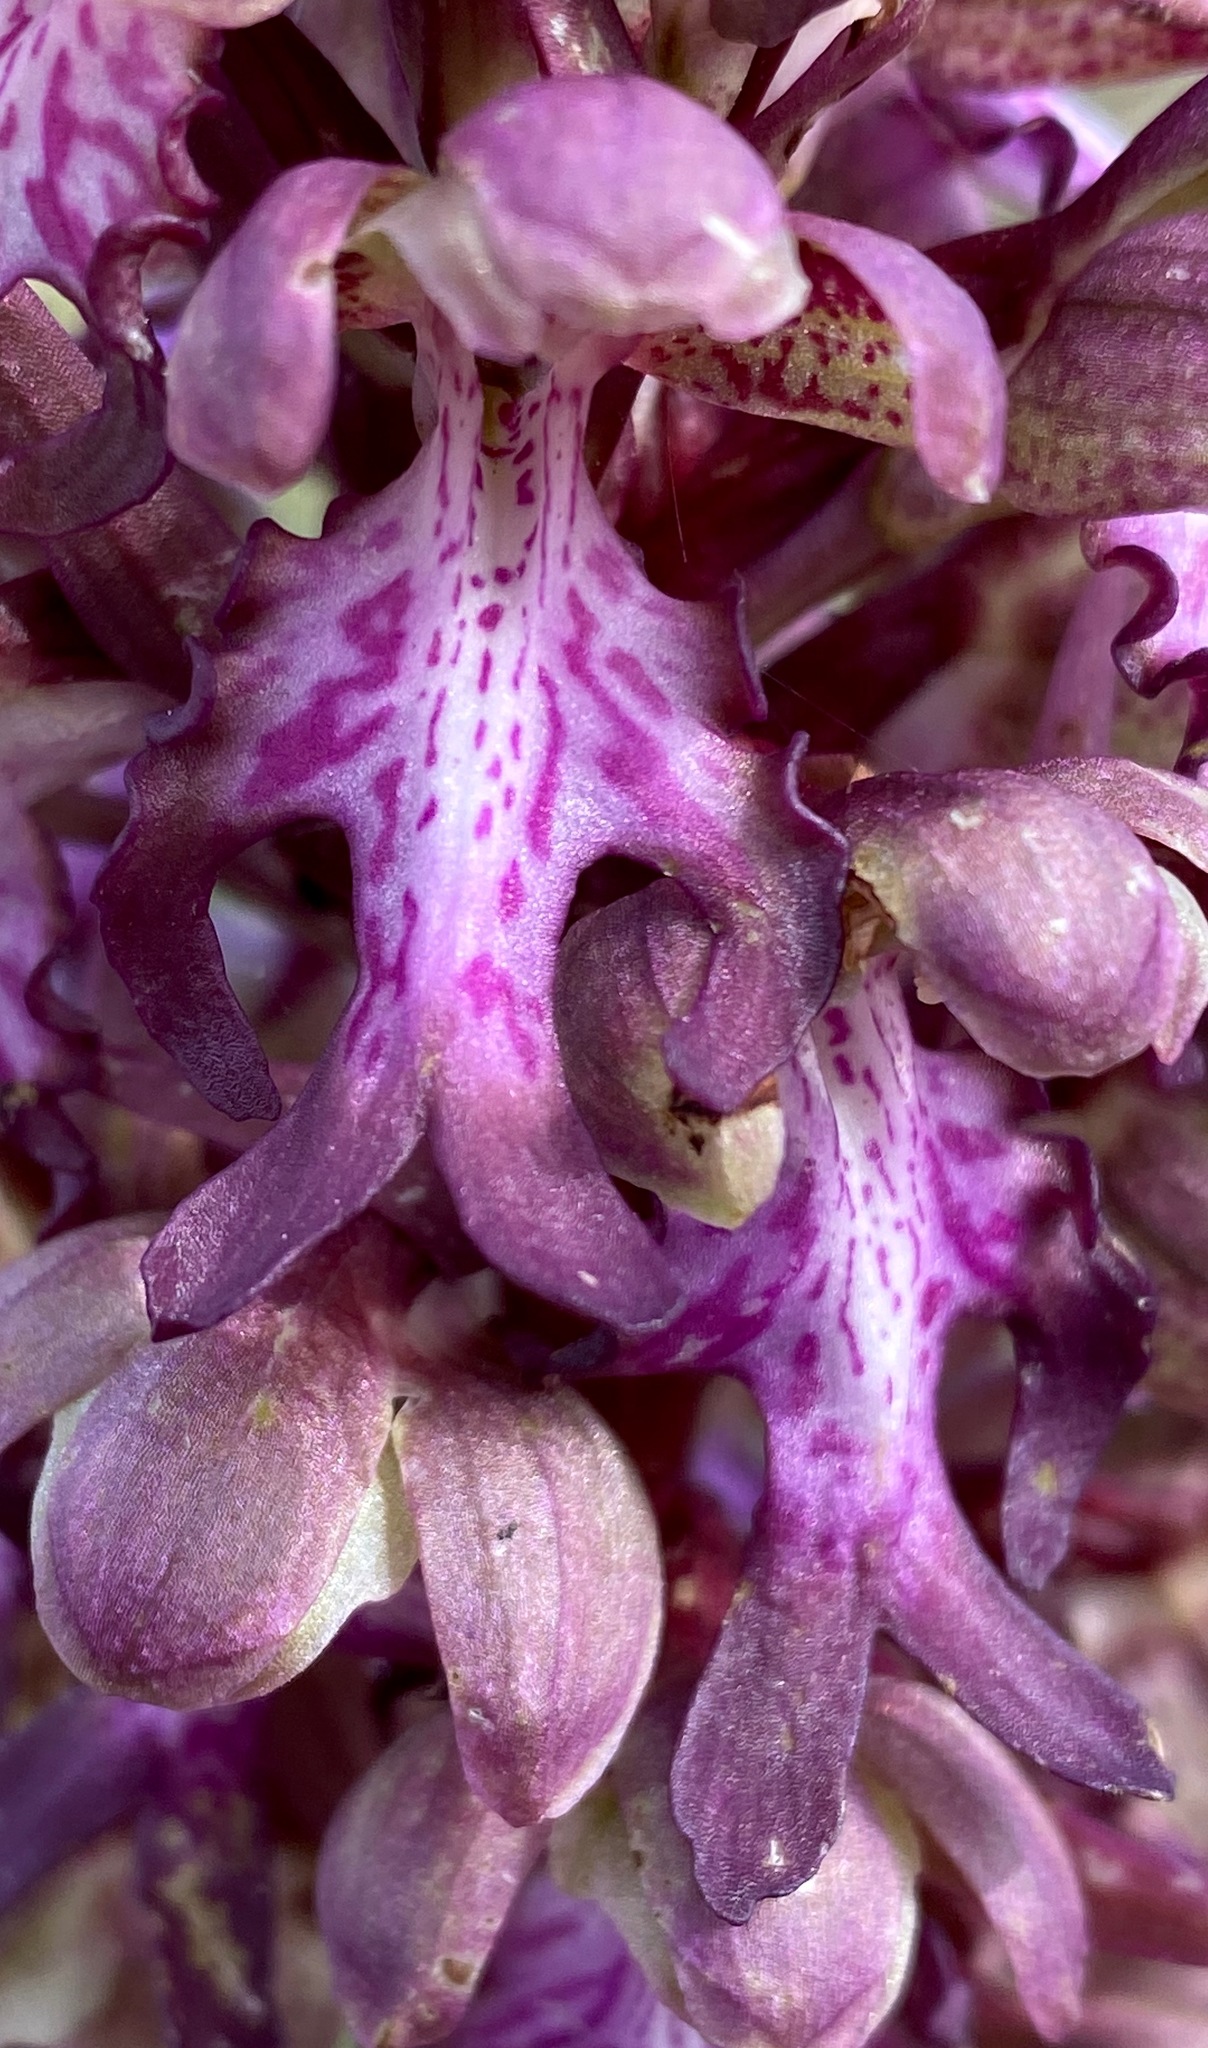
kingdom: Plantae
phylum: Tracheophyta
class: Liliopsida
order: Asparagales
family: Orchidaceae
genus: Himantoglossum
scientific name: Himantoglossum robertianum
